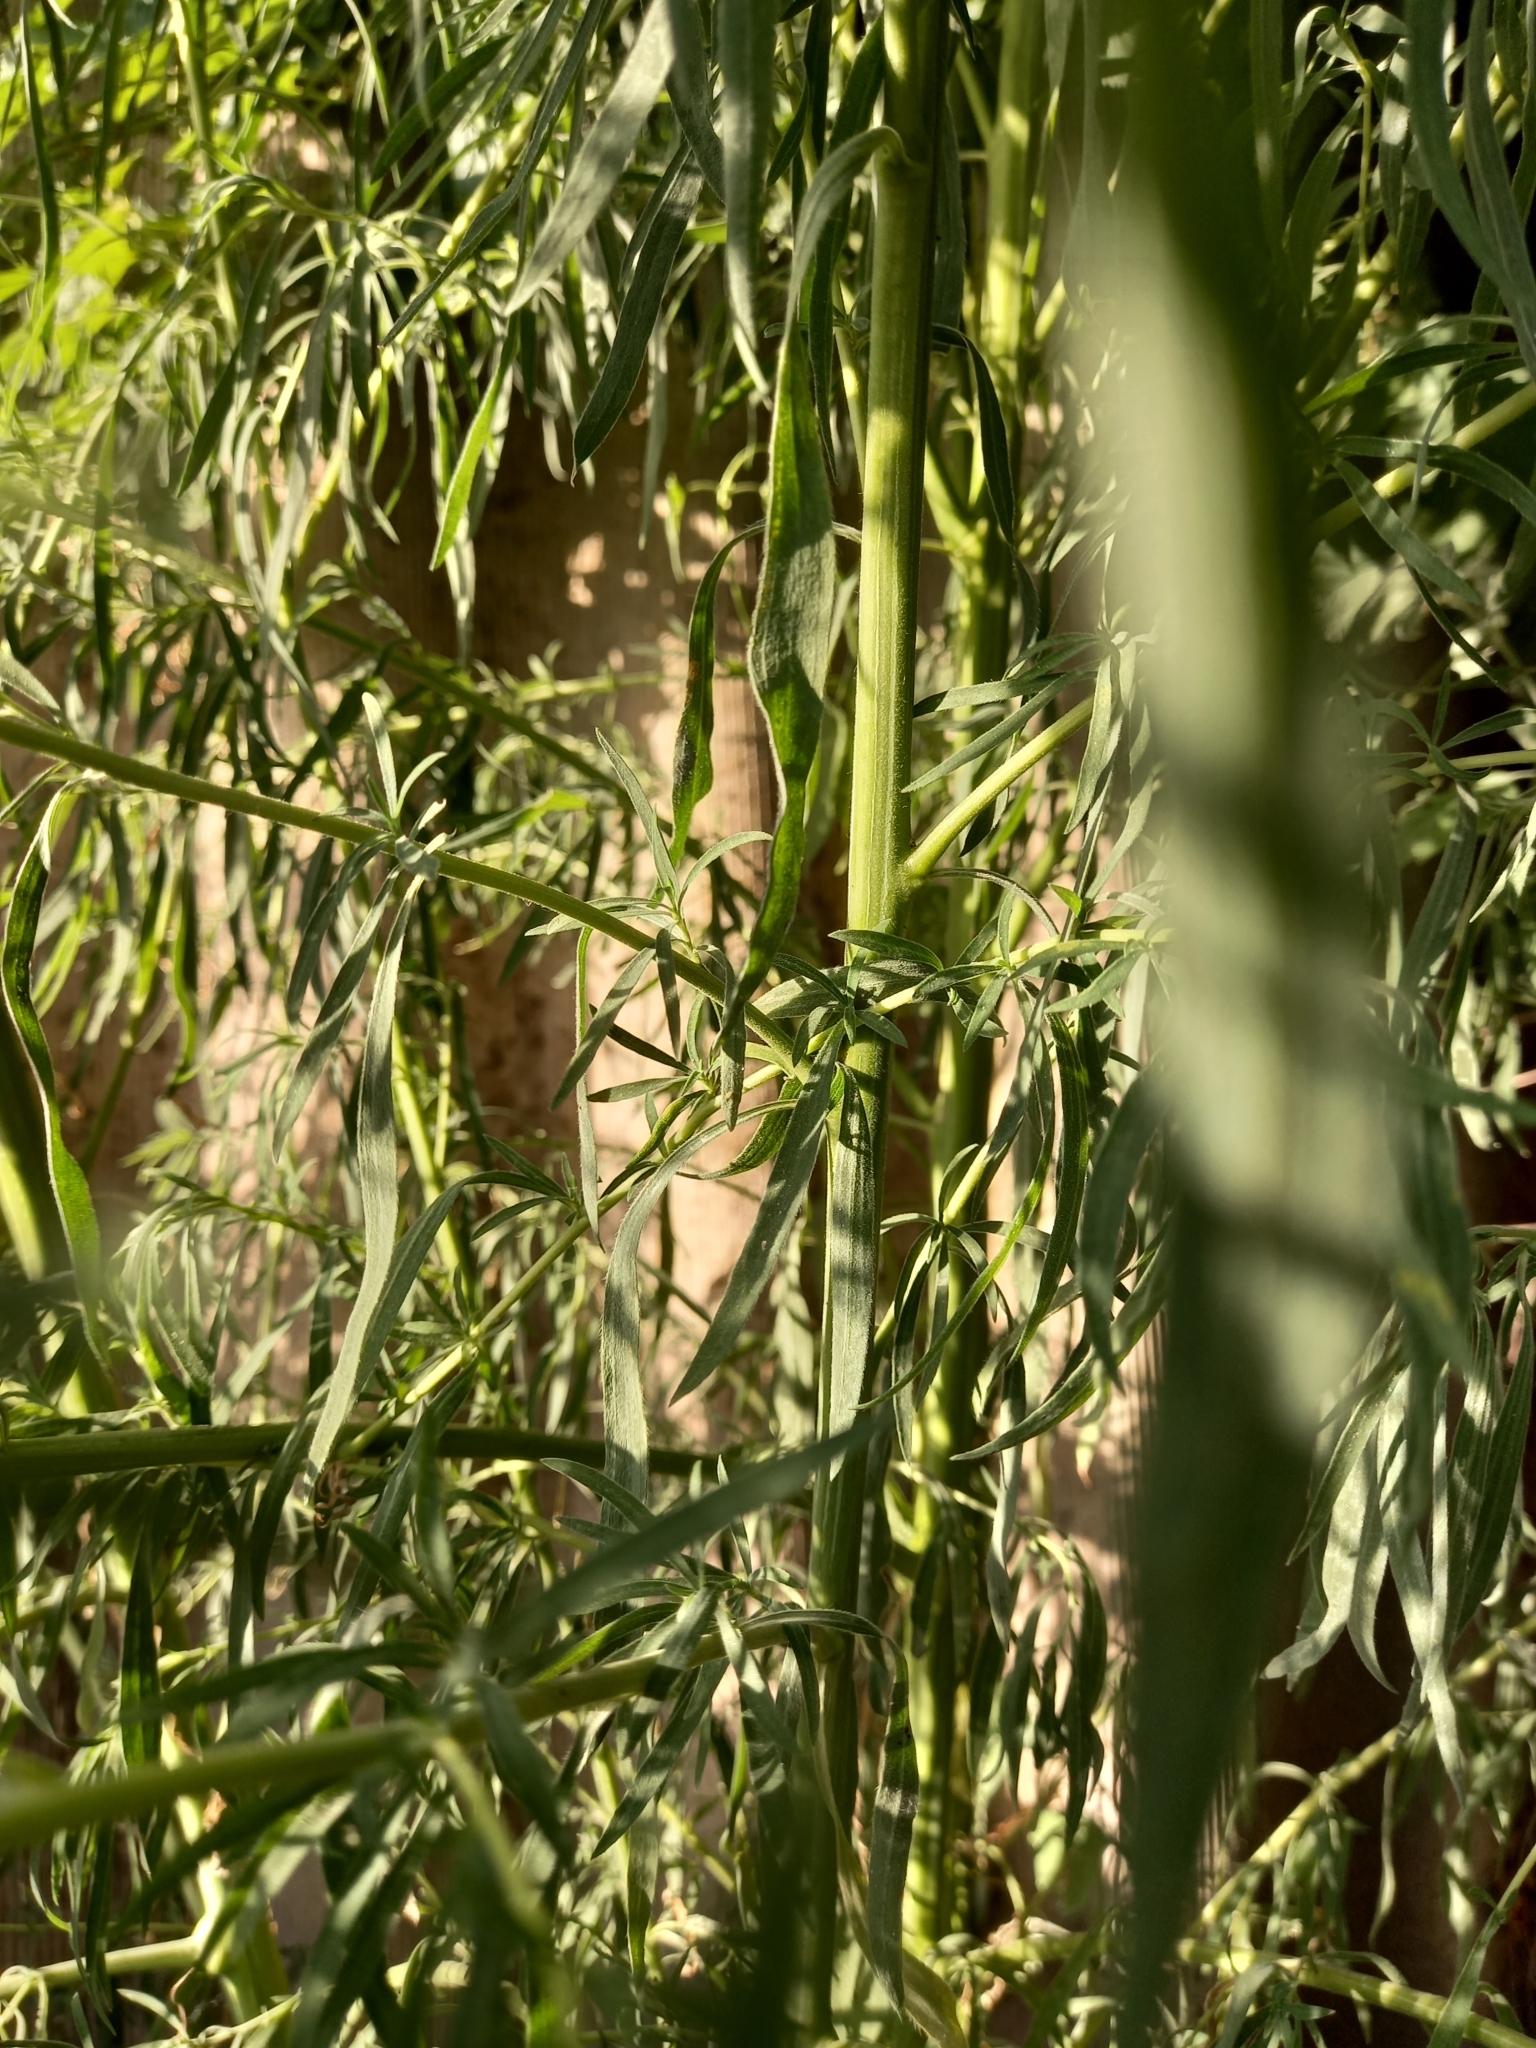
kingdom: Plantae
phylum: Tracheophyta
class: Magnoliopsida
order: Caryophyllales
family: Amaranthaceae
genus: Bassia
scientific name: Bassia scoparia
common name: Belvedere
